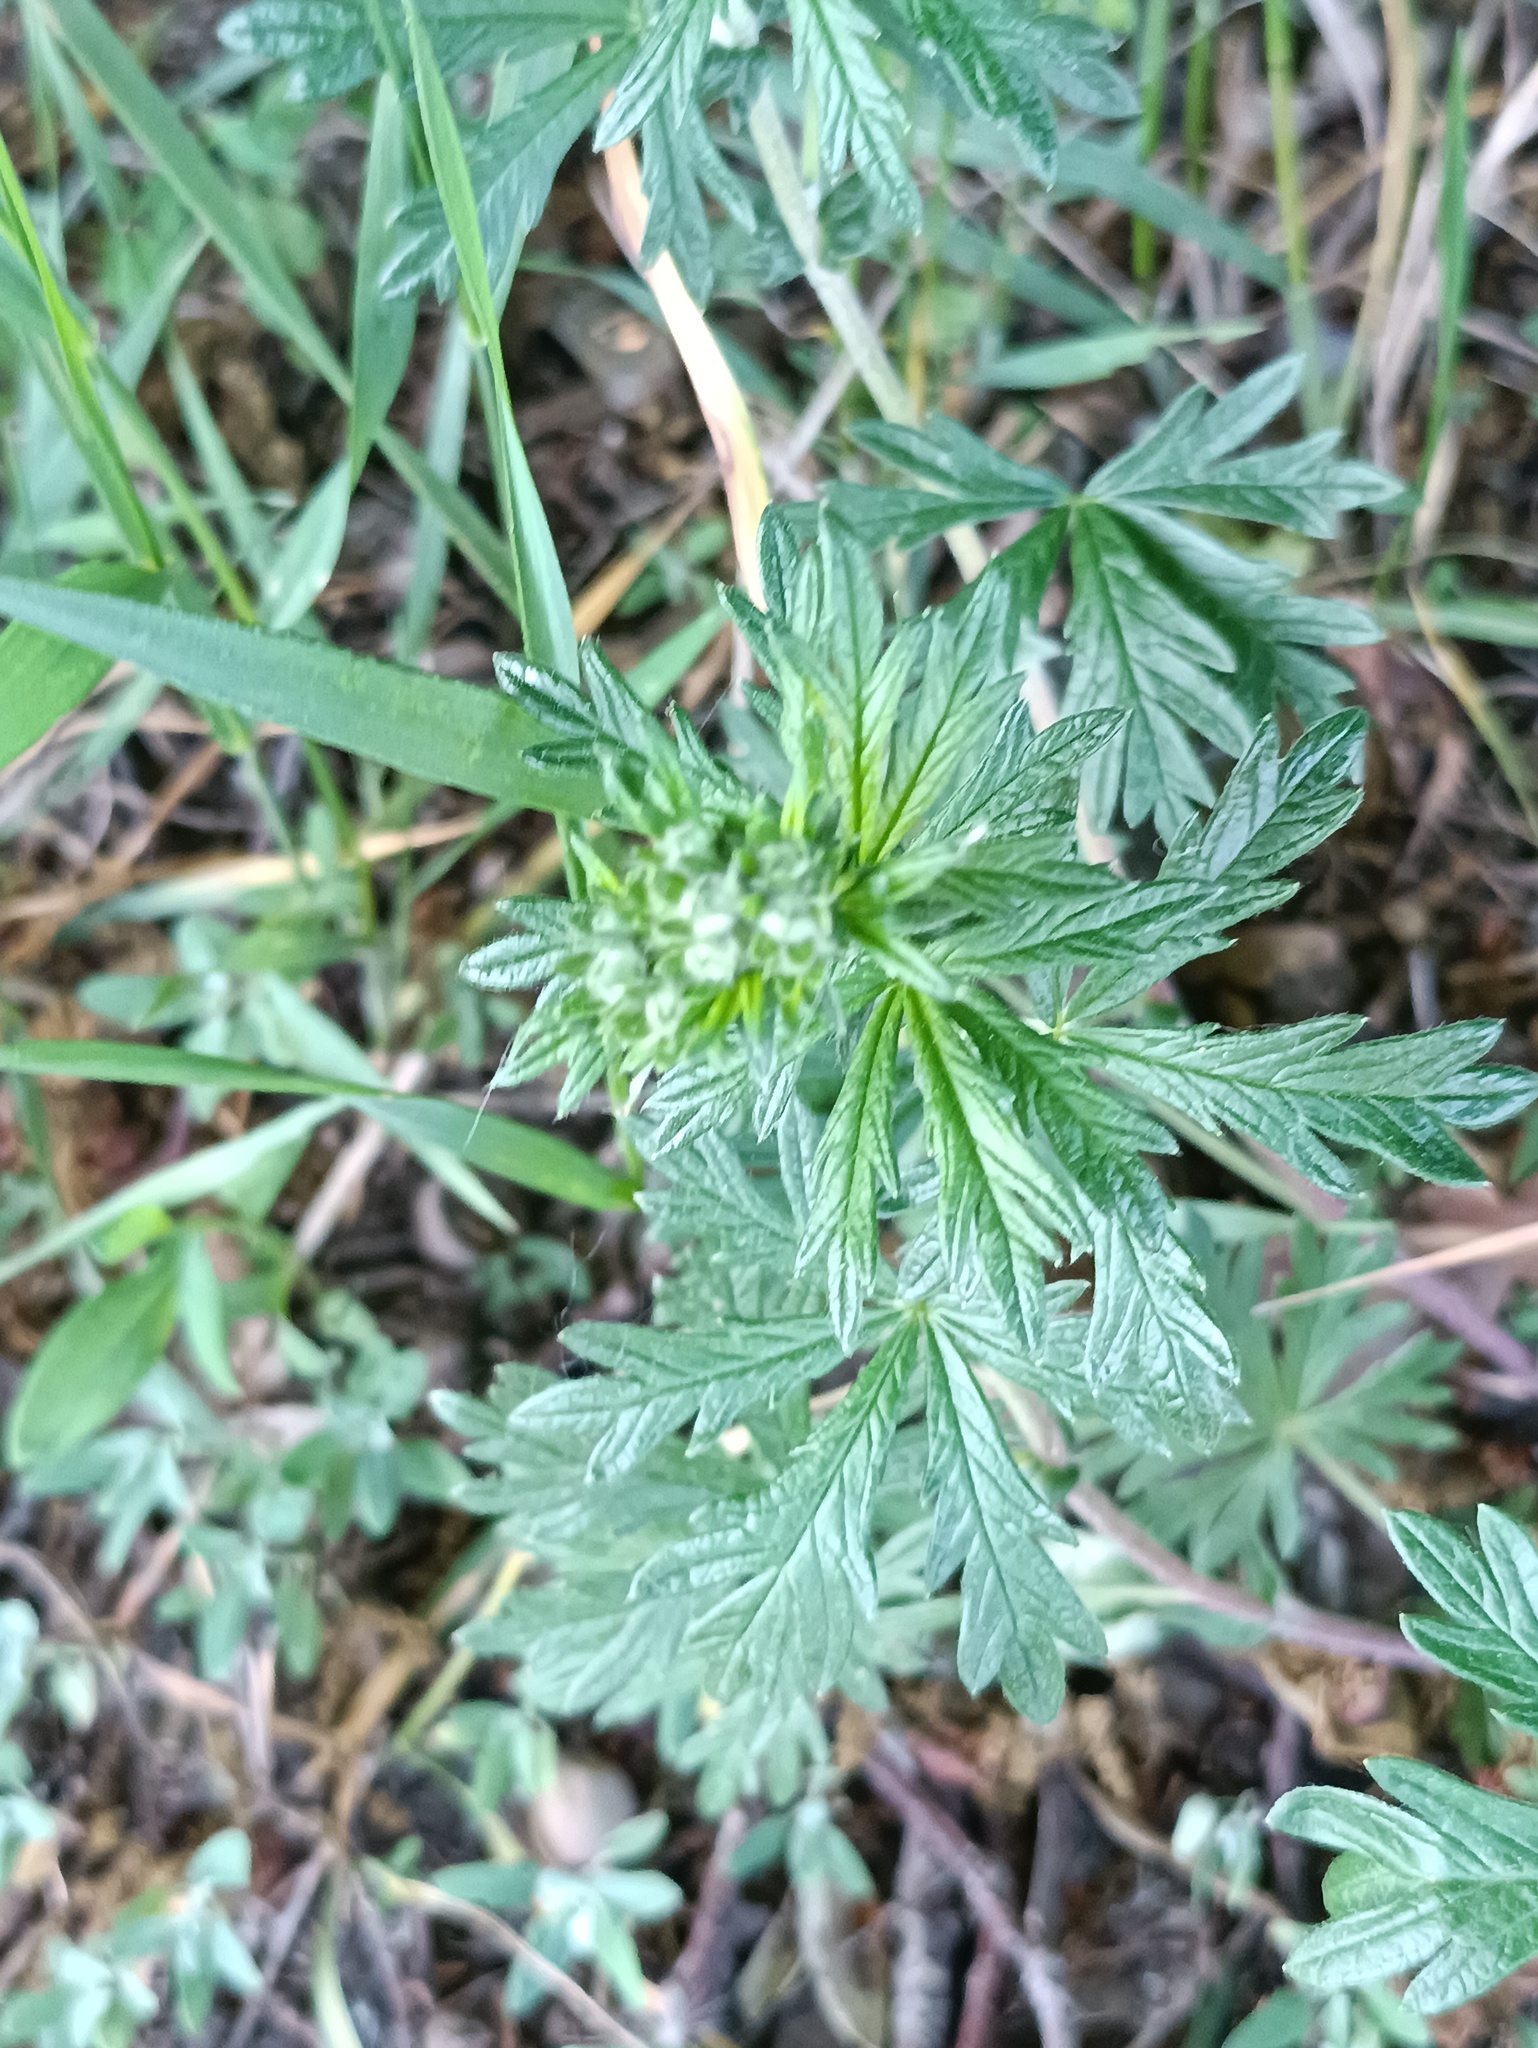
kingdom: Plantae
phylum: Tracheophyta
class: Magnoliopsida
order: Rosales
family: Rosaceae
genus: Potentilla
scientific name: Potentilla argentea
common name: Hoary cinquefoil
